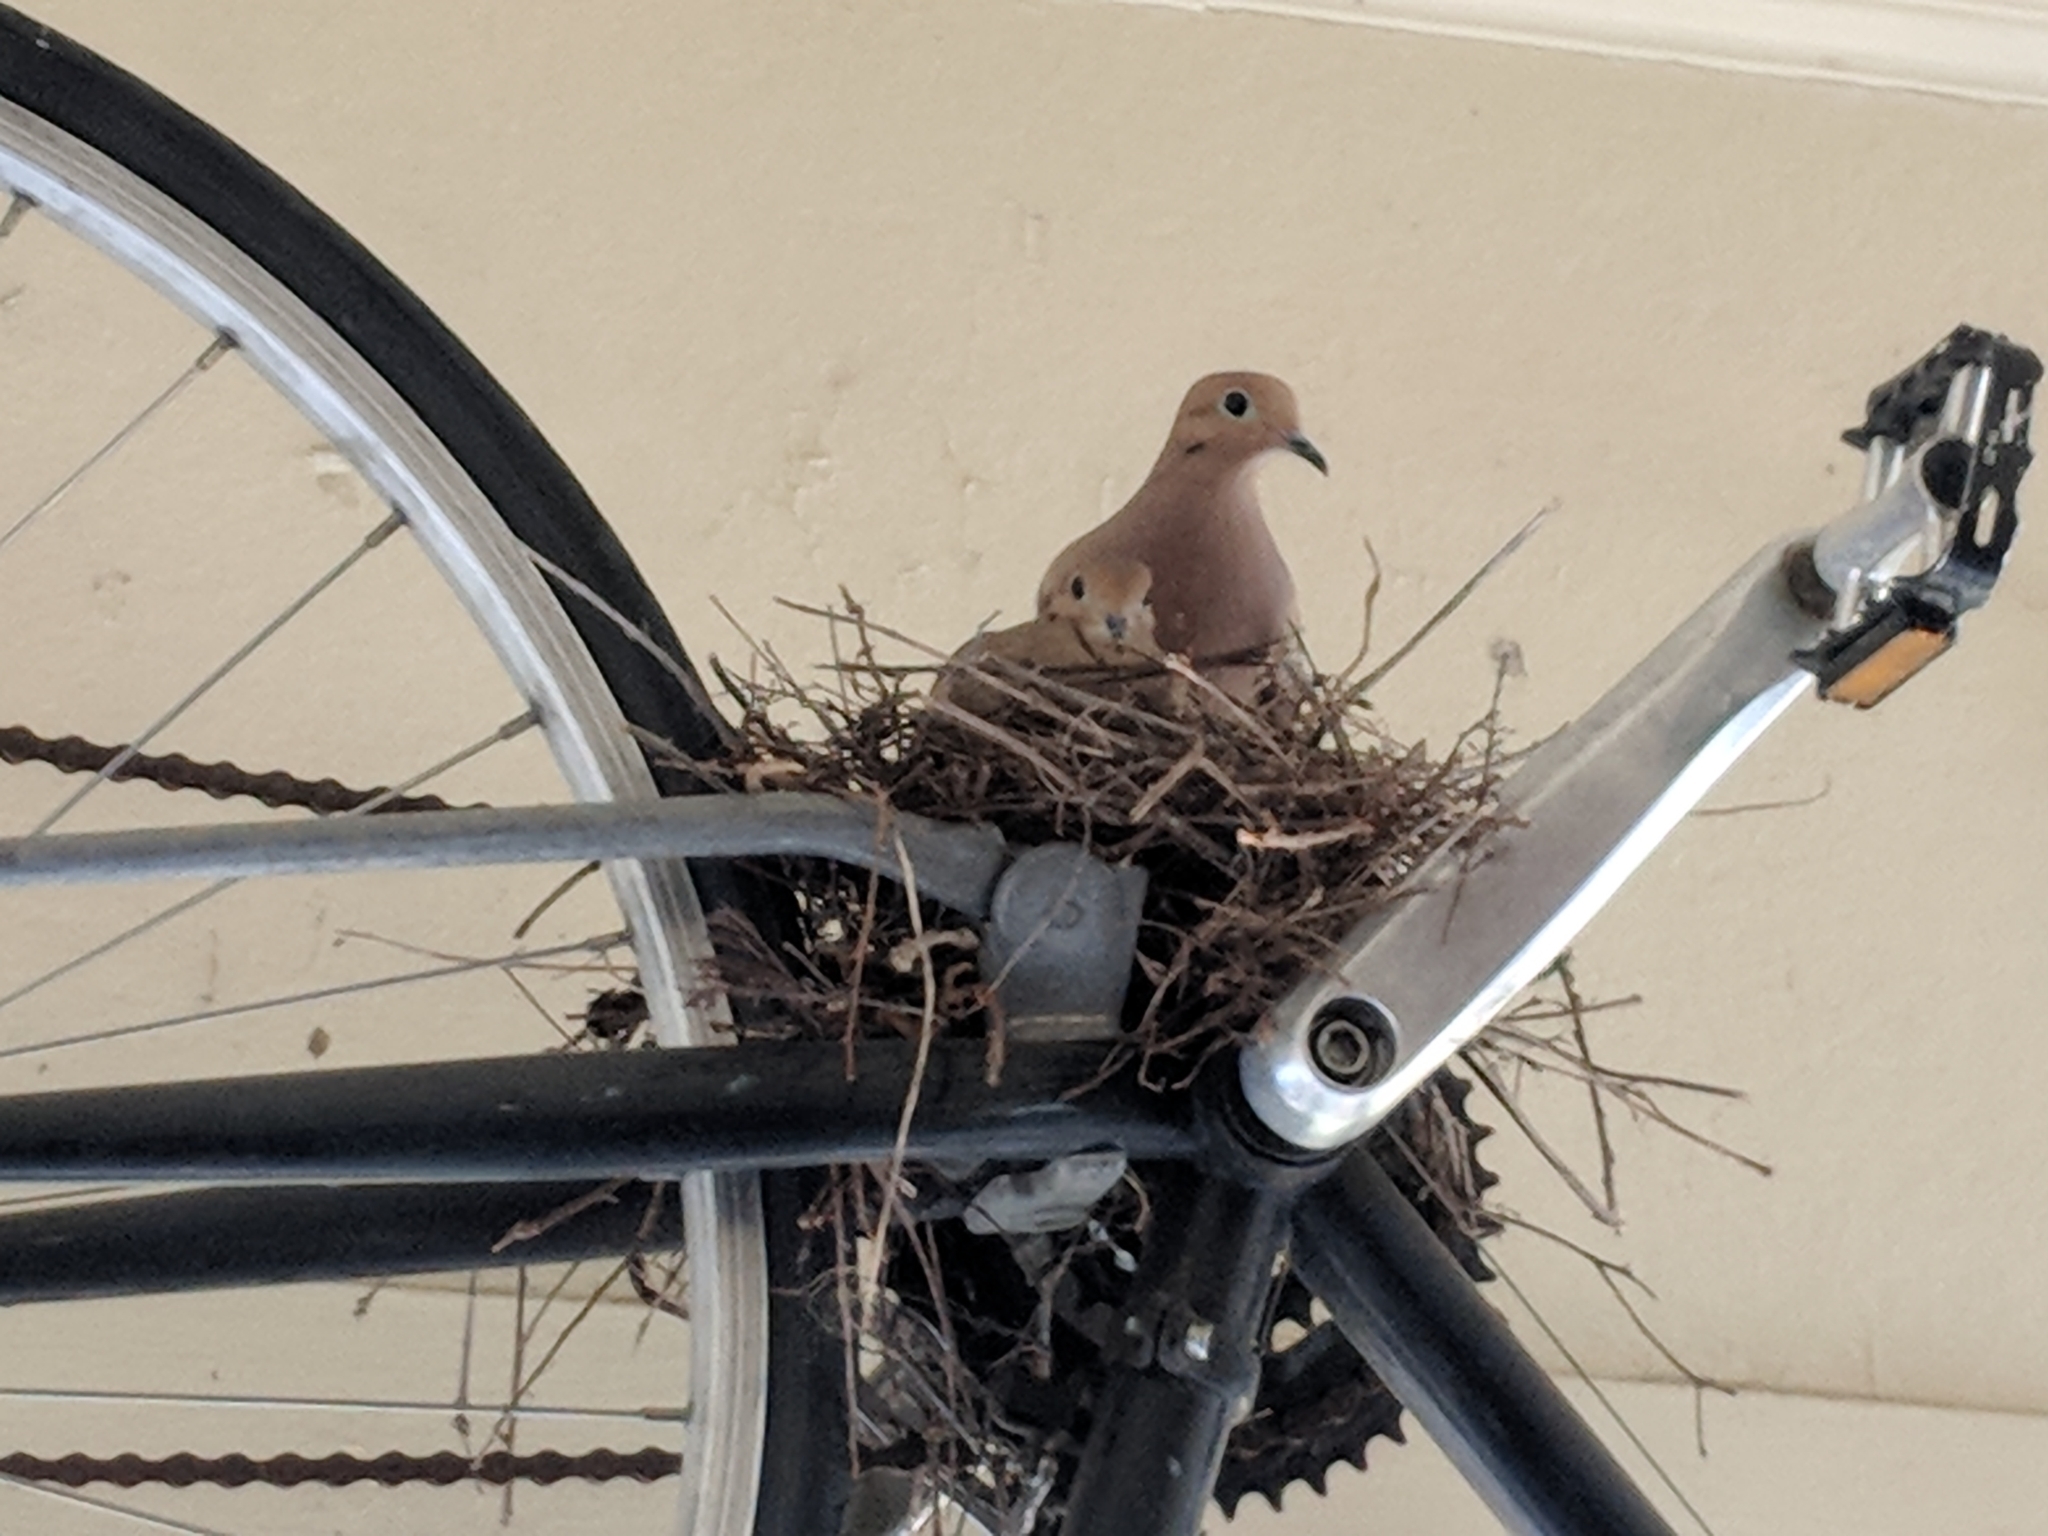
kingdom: Animalia
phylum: Chordata
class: Aves
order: Columbiformes
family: Columbidae
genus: Zenaida
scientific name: Zenaida macroura
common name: Mourning dove
